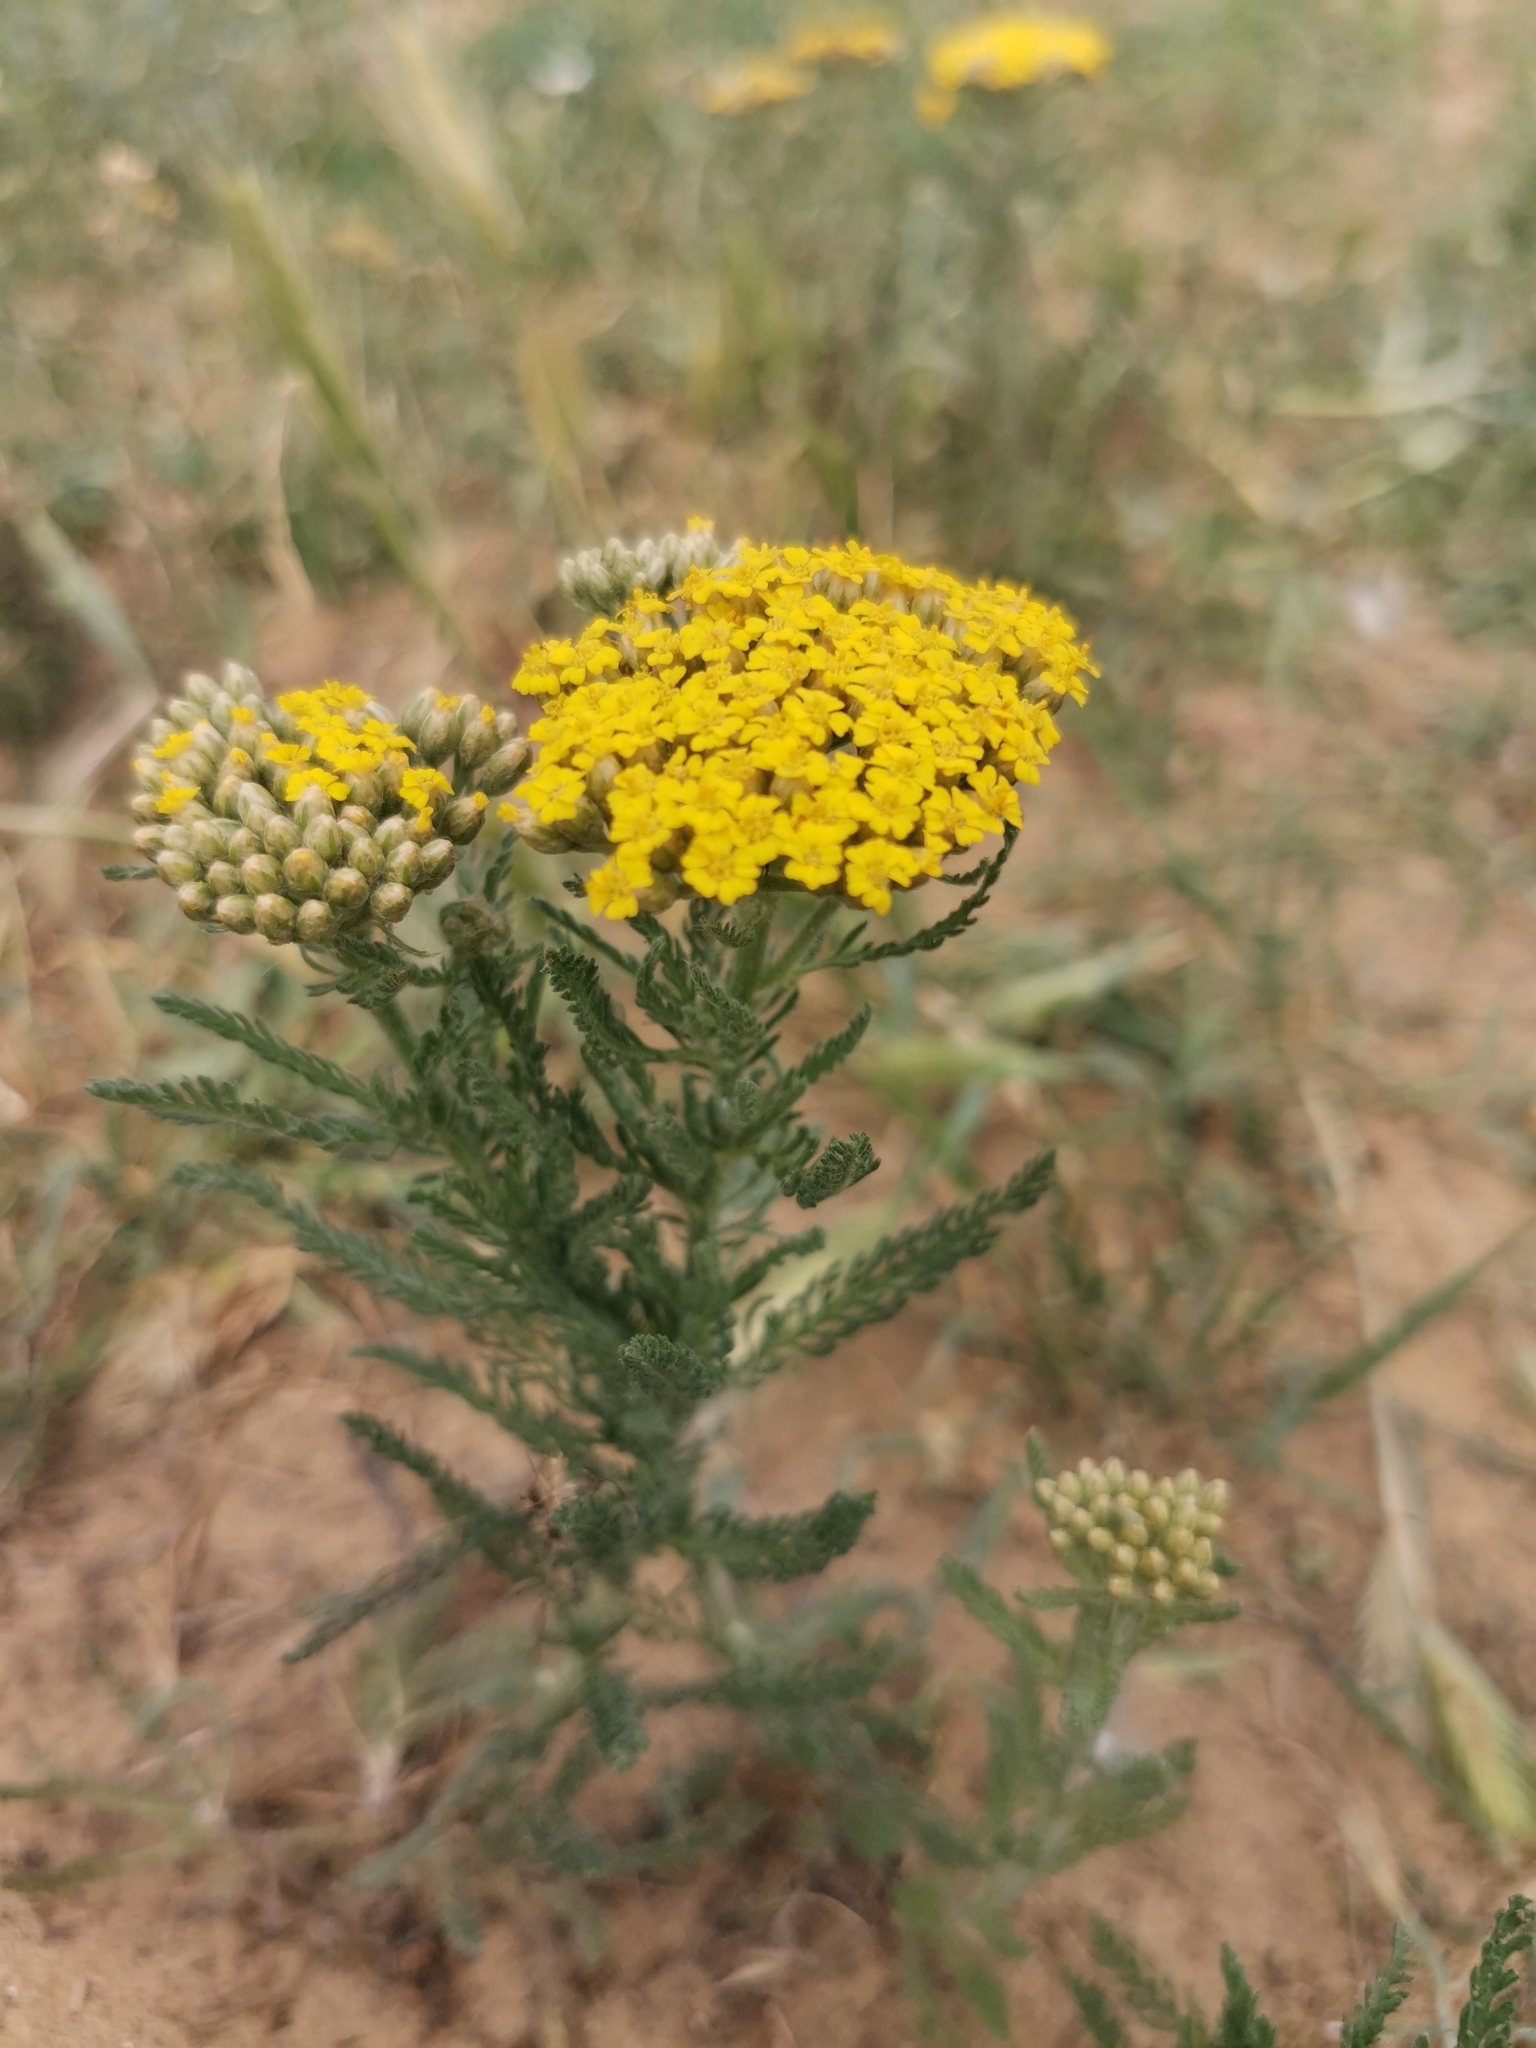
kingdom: Plantae
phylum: Tracheophyta
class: Magnoliopsida
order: Asterales
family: Asteraceae
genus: Achillea
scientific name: Achillea arabica
